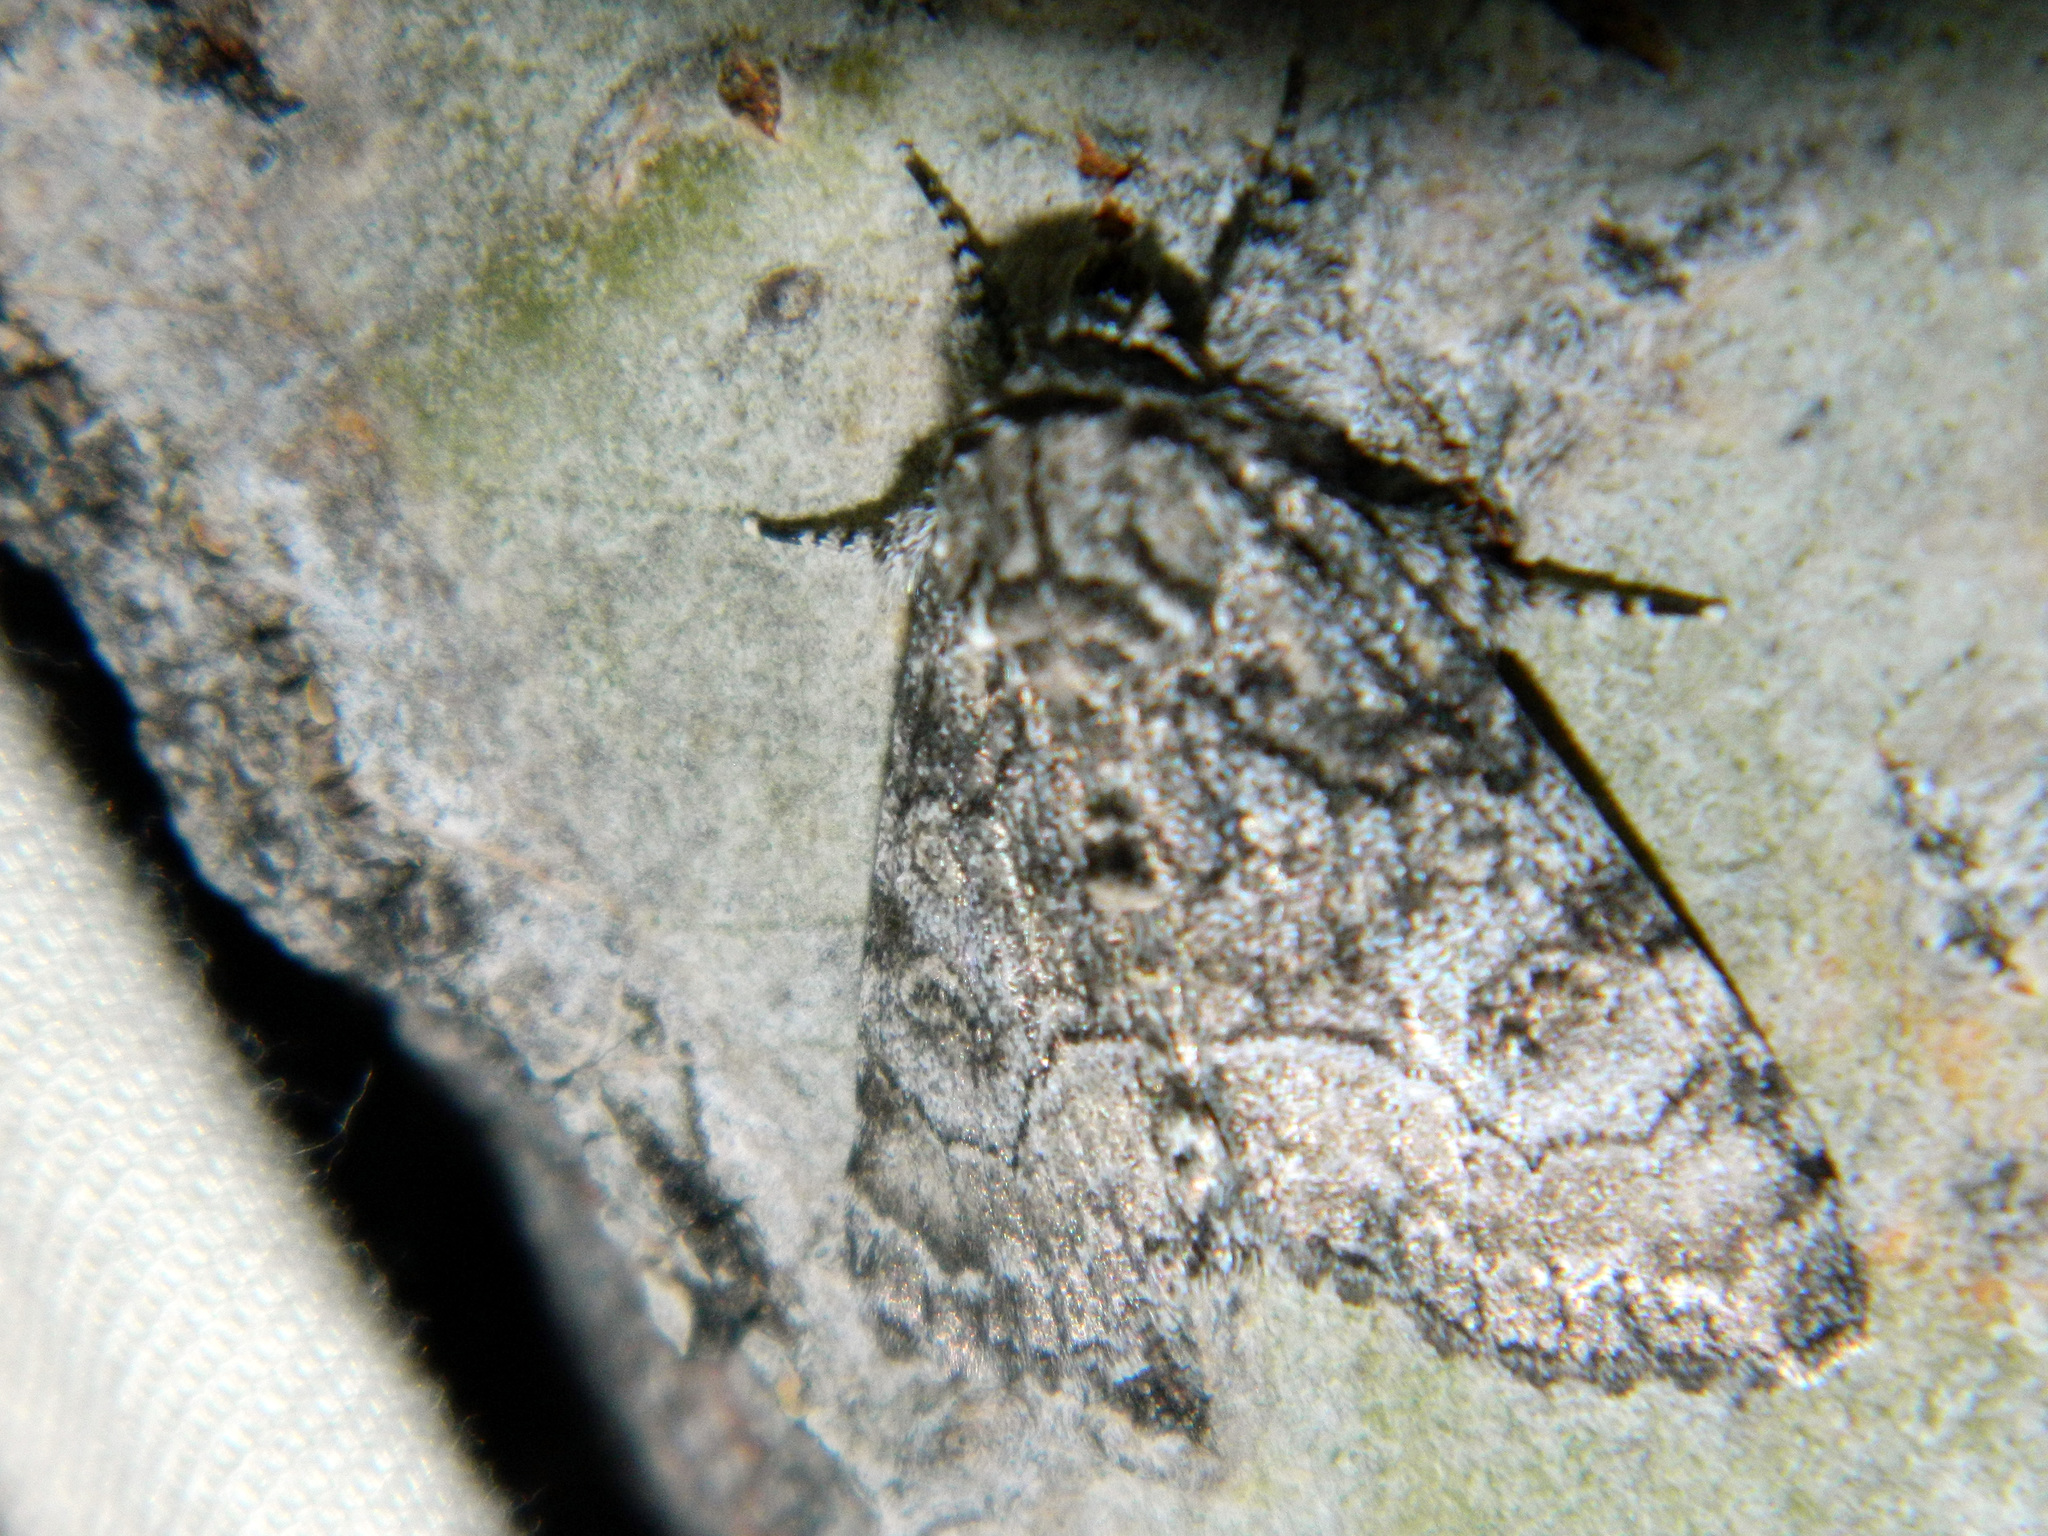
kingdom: Animalia
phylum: Arthropoda
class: Insecta
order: Lepidoptera
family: Noctuidae
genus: Raphia
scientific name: Raphia frater
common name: Brother
